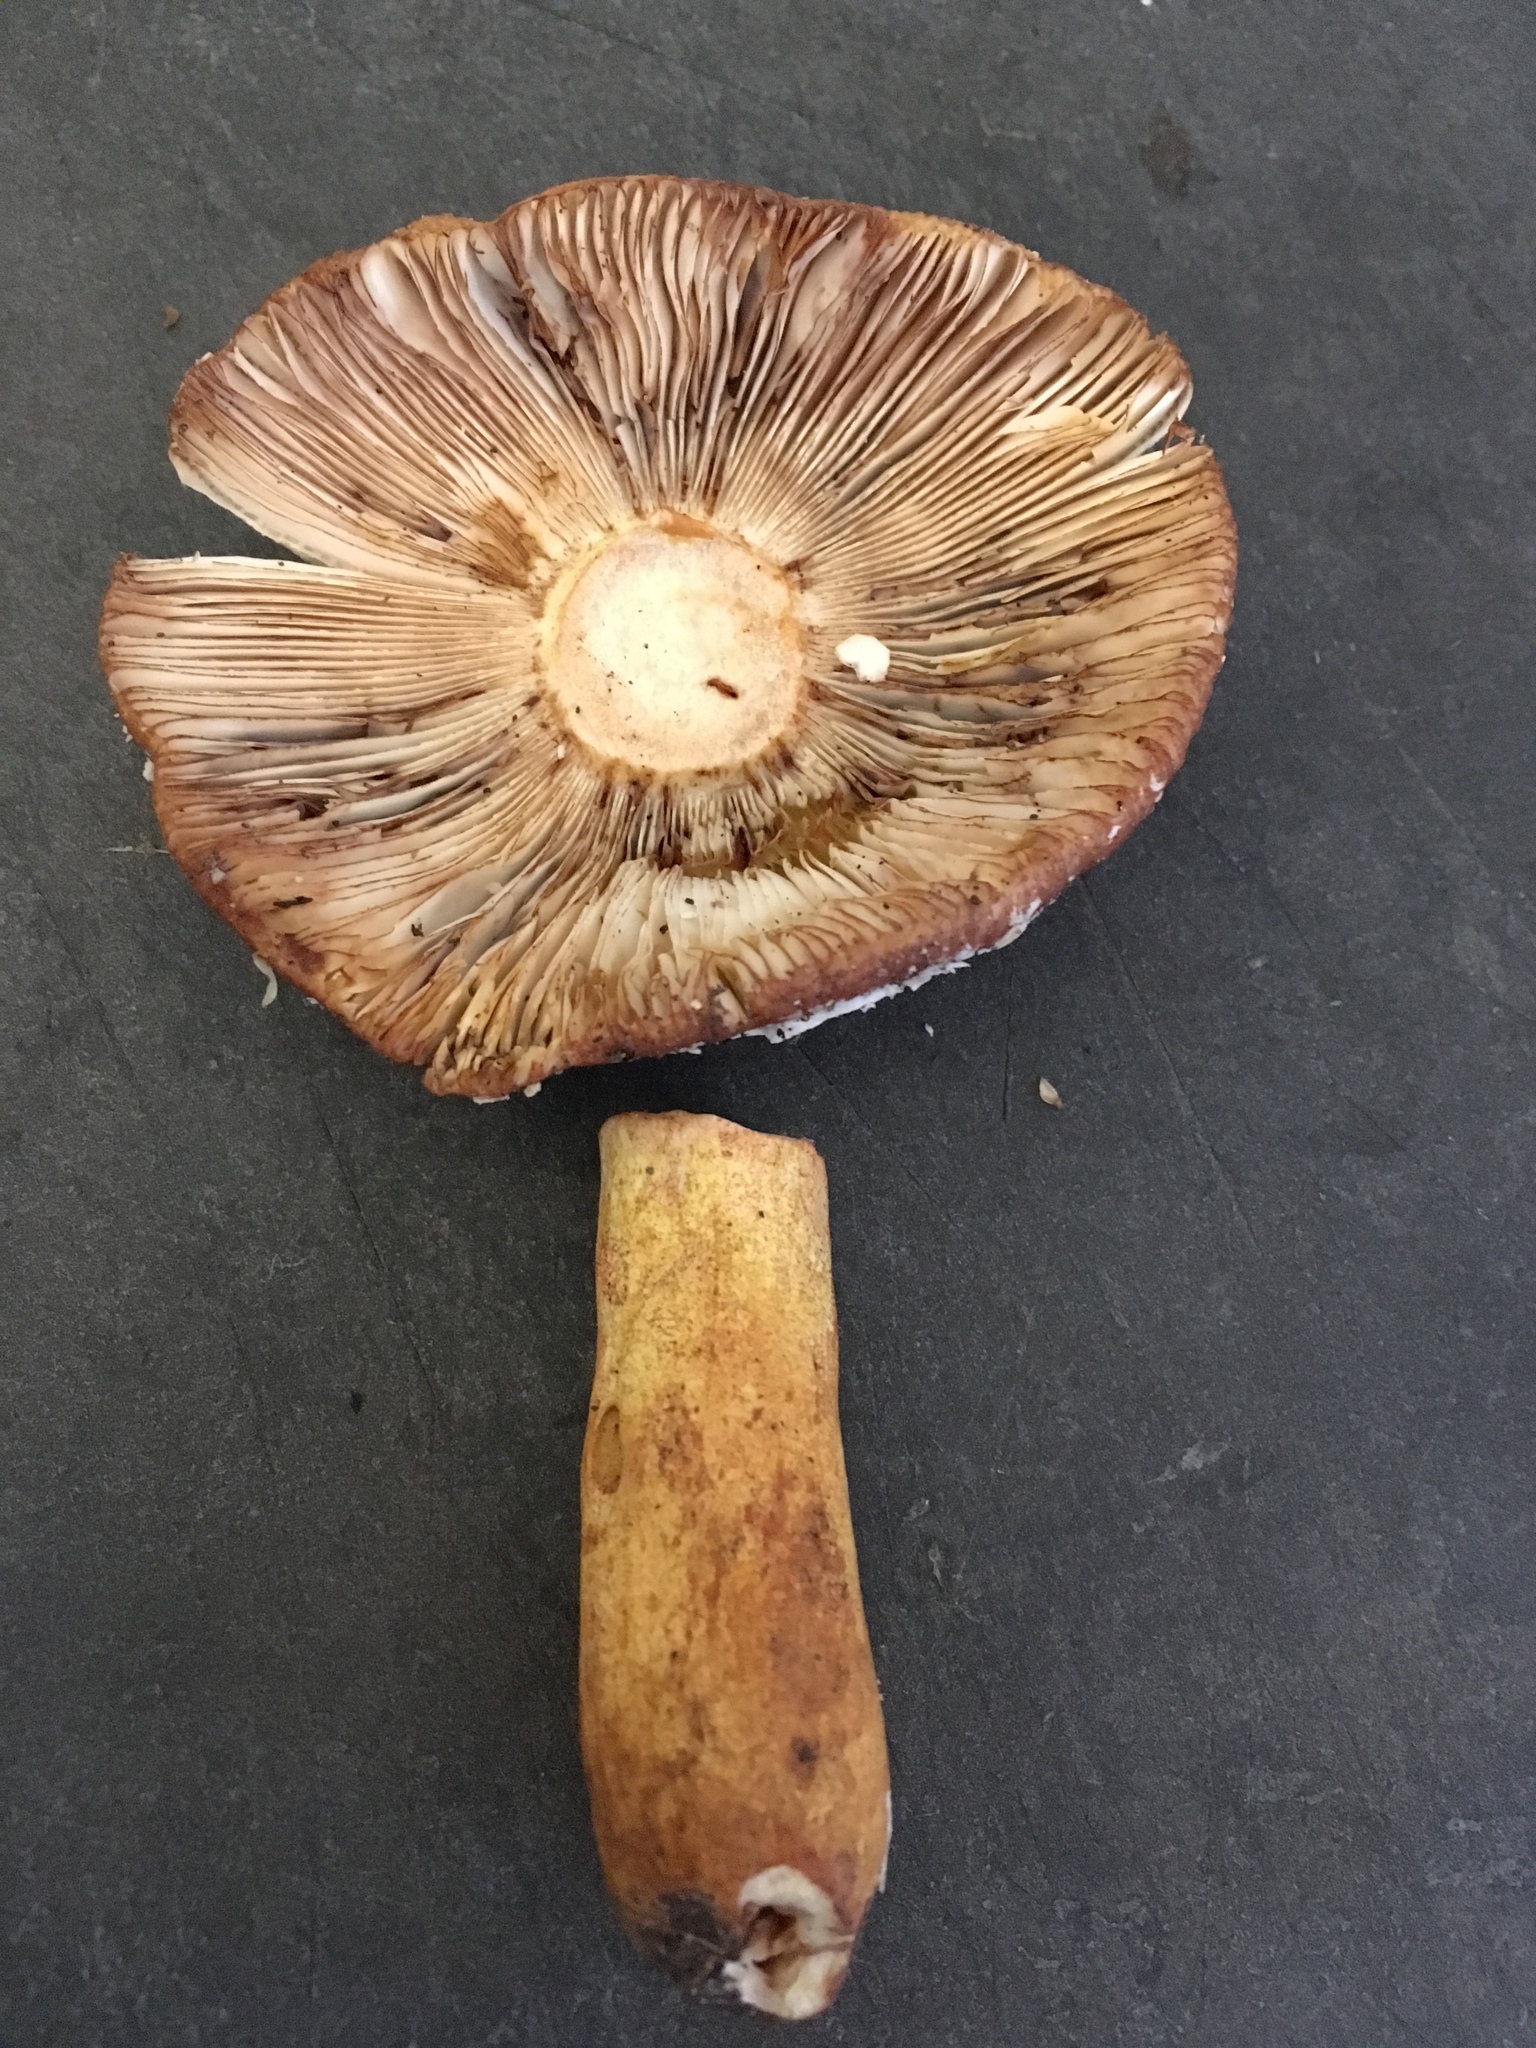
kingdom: Fungi
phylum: Basidiomycota
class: Agaricomycetes
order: Russulales
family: Russulaceae
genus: Russula
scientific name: Russula mutabilis
